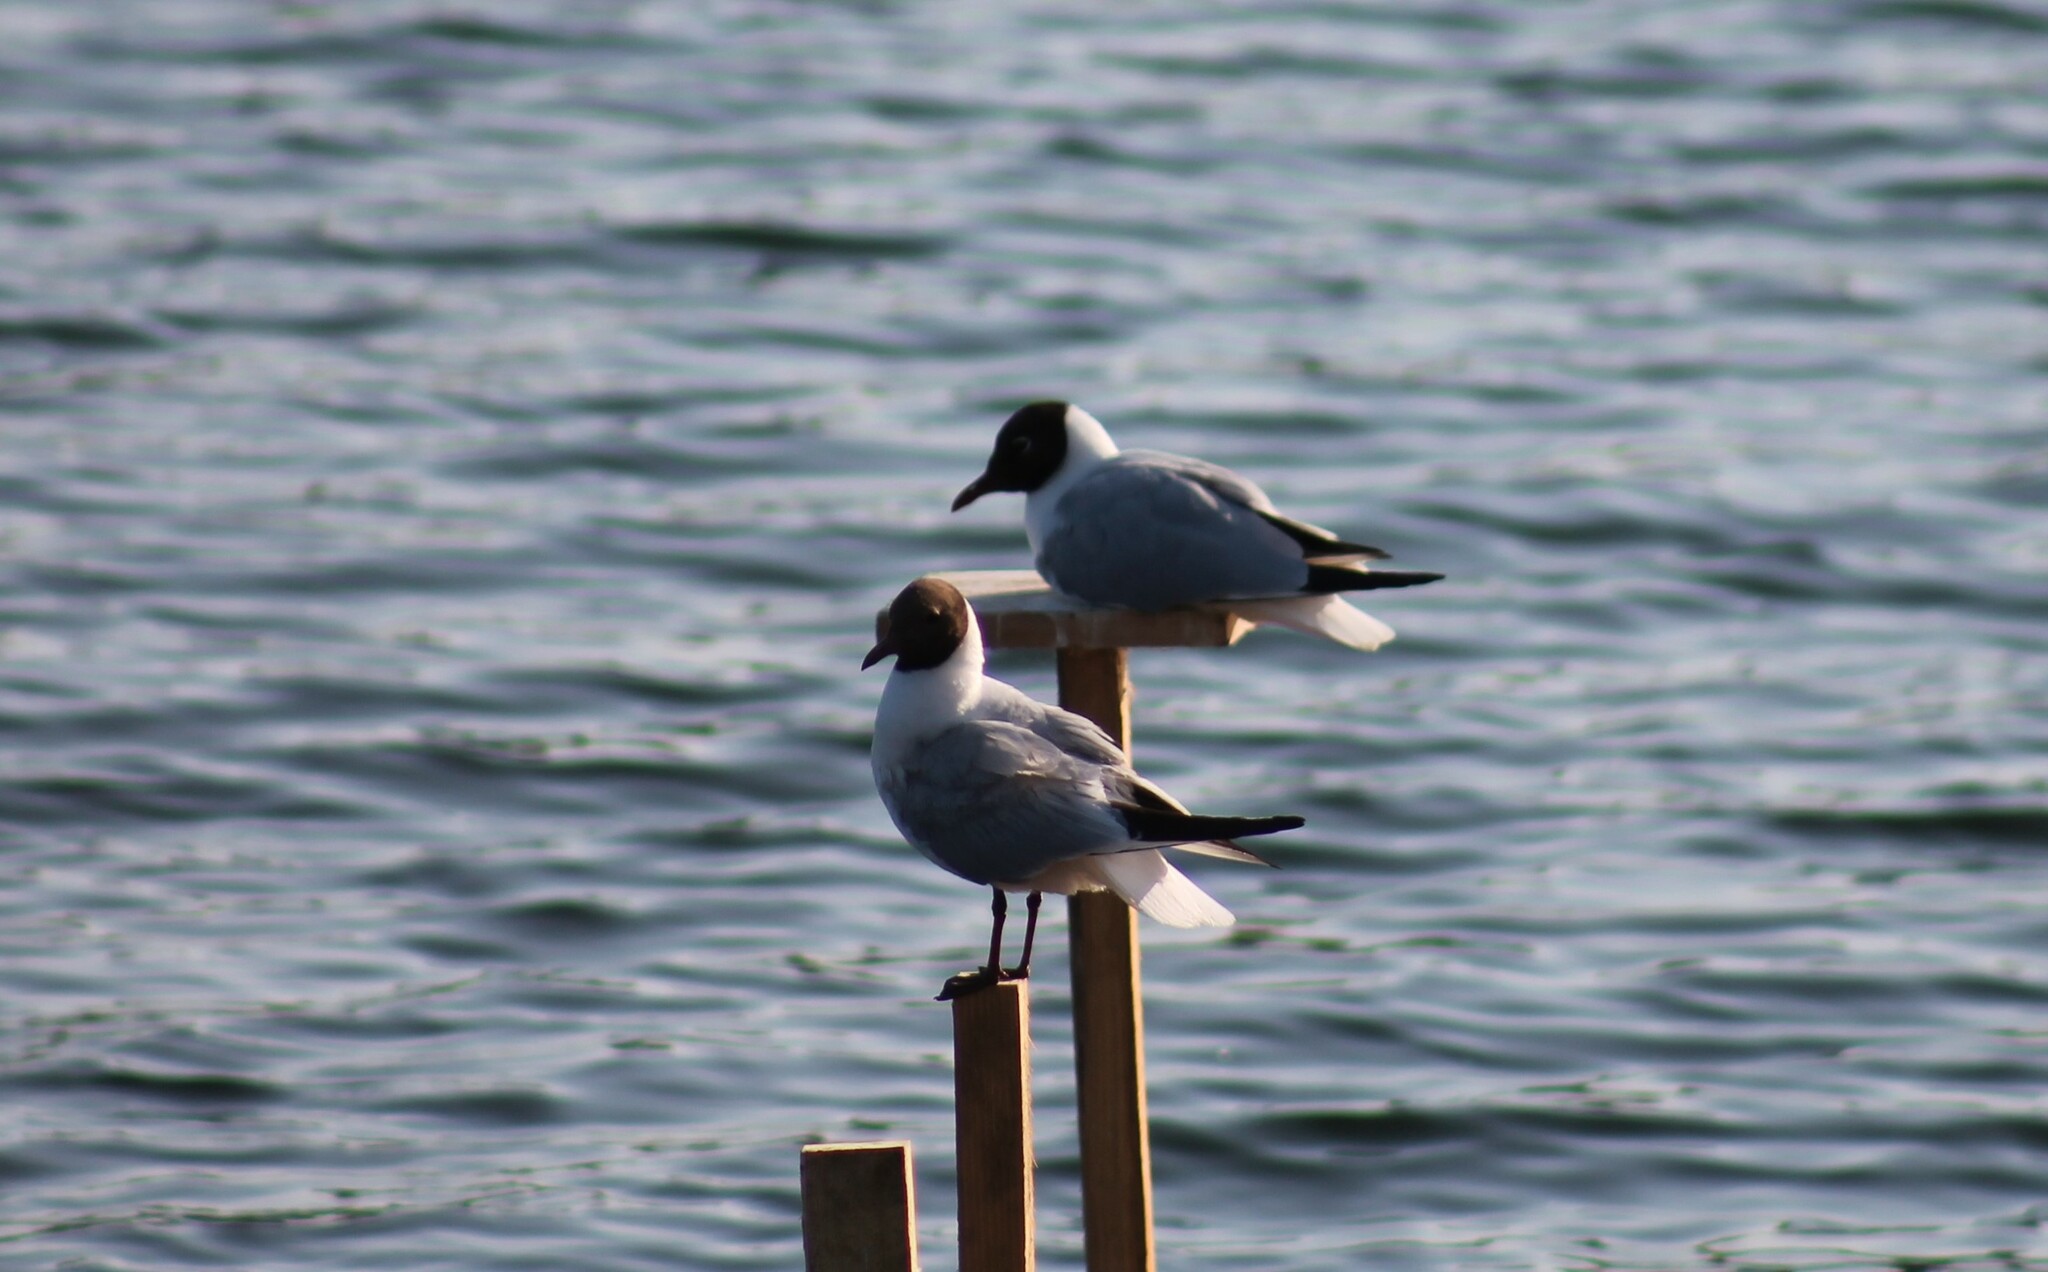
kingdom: Animalia
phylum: Chordata
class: Aves
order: Charadriiformes
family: Laridae
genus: Chroicocephalus
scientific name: Chroicocephalus ridibundus
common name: Black-headed gull
